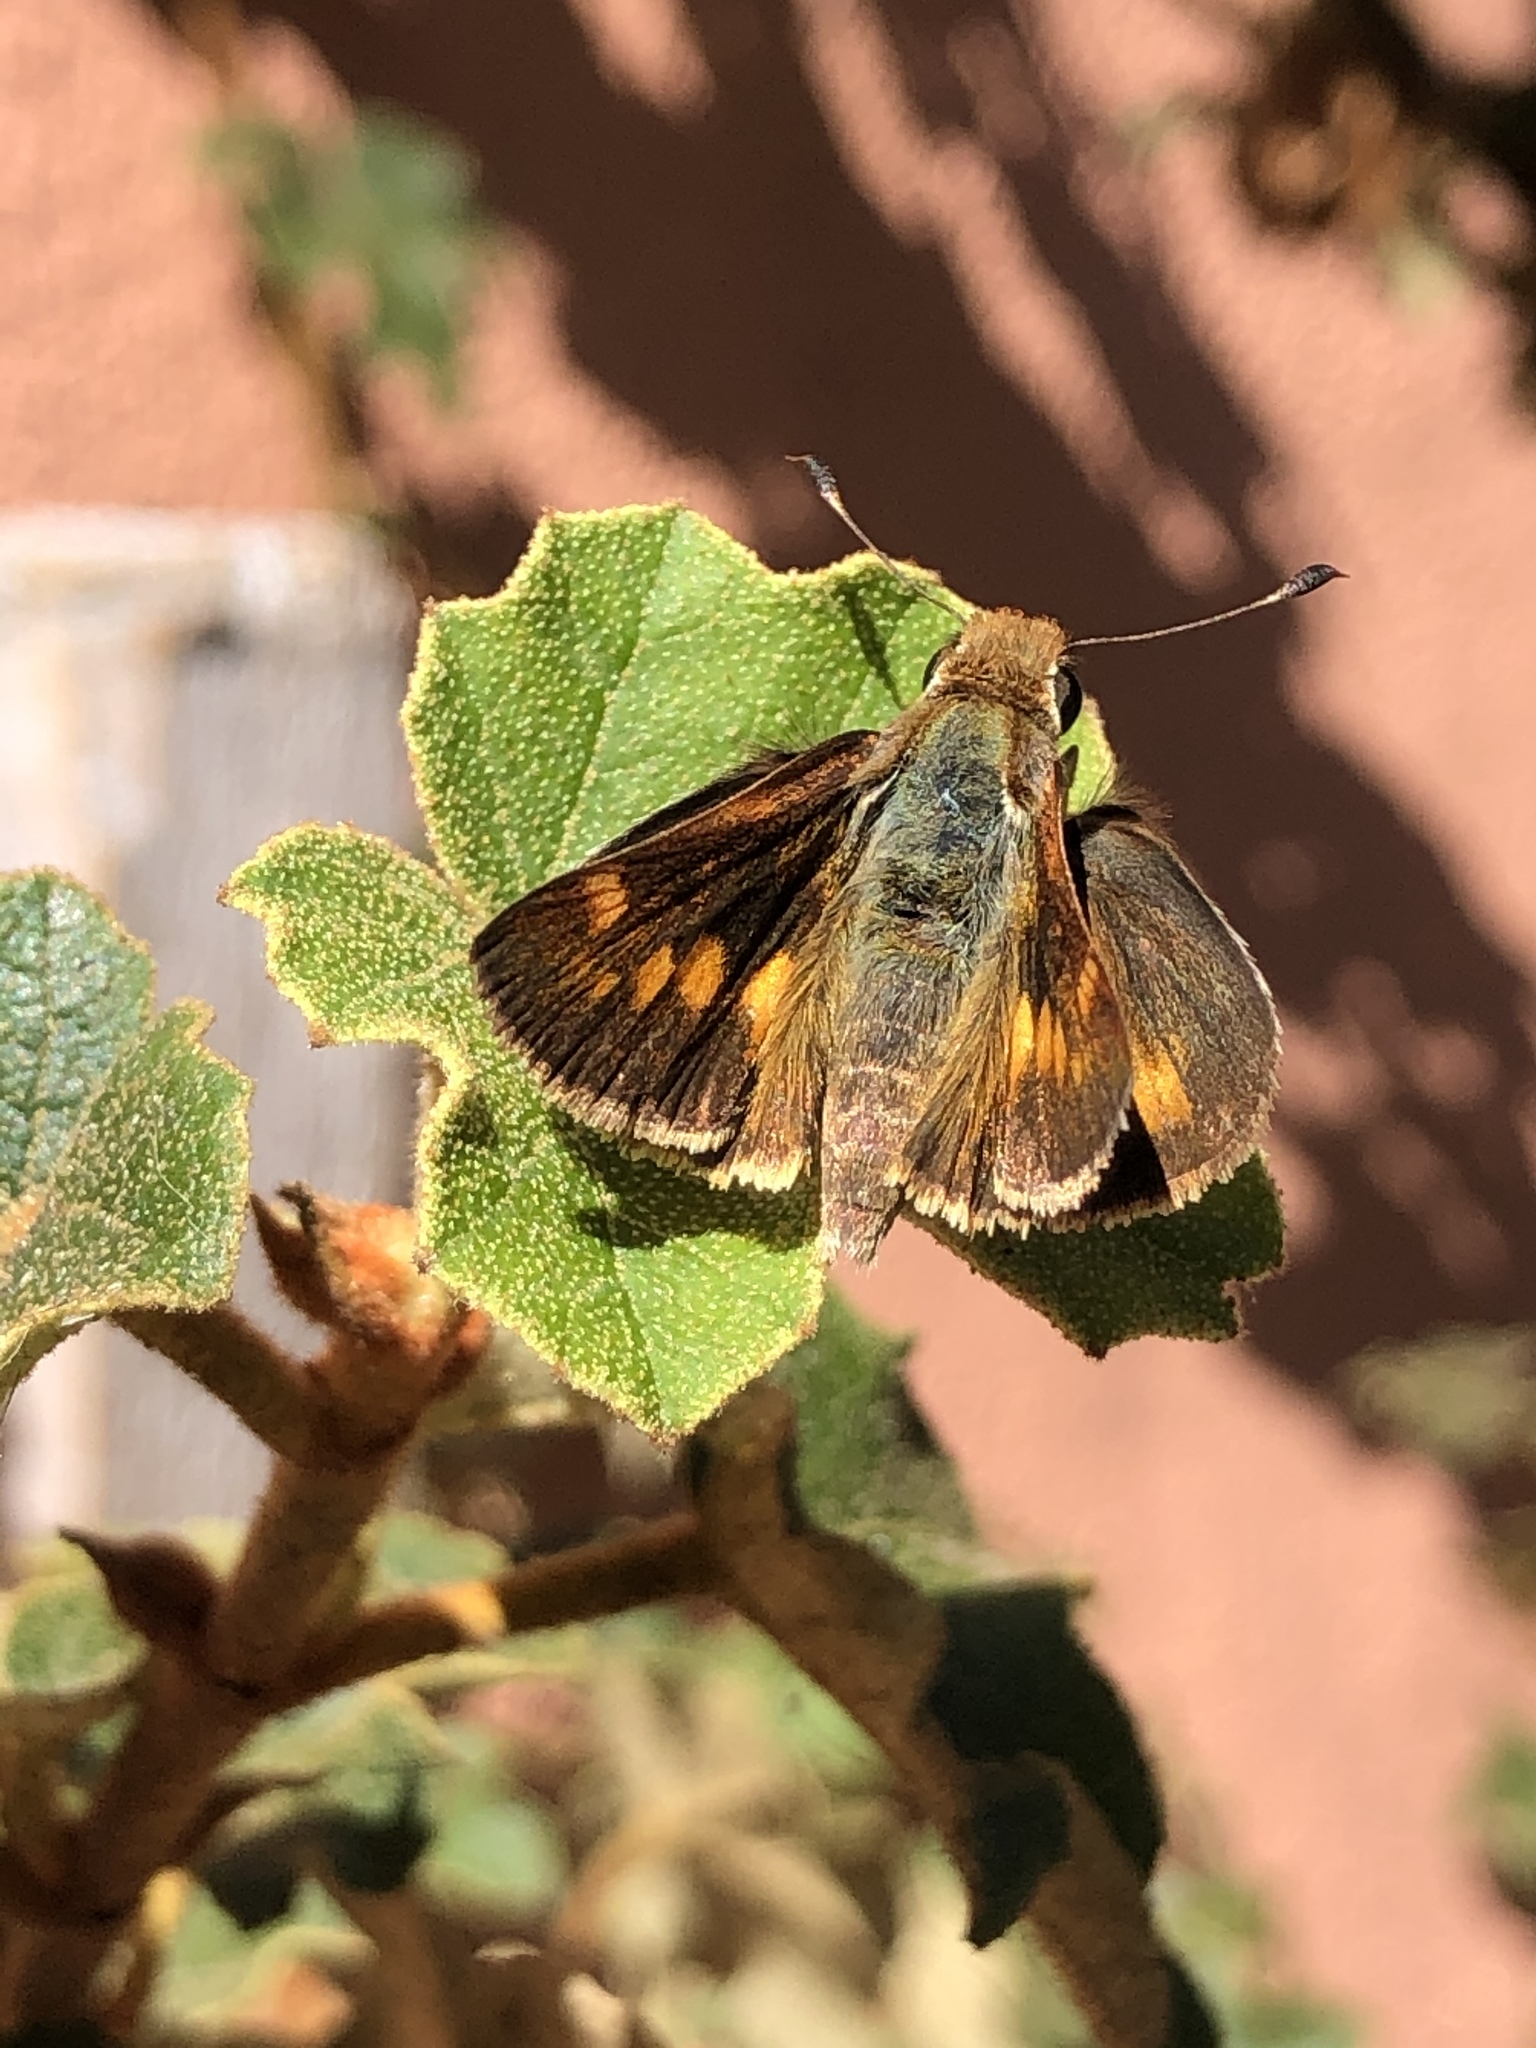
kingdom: Animalia
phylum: Arthropoda
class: Insecta
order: Lepidoptera
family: Hesperiidae
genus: Lon
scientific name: Lon melane
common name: Umber skipper
